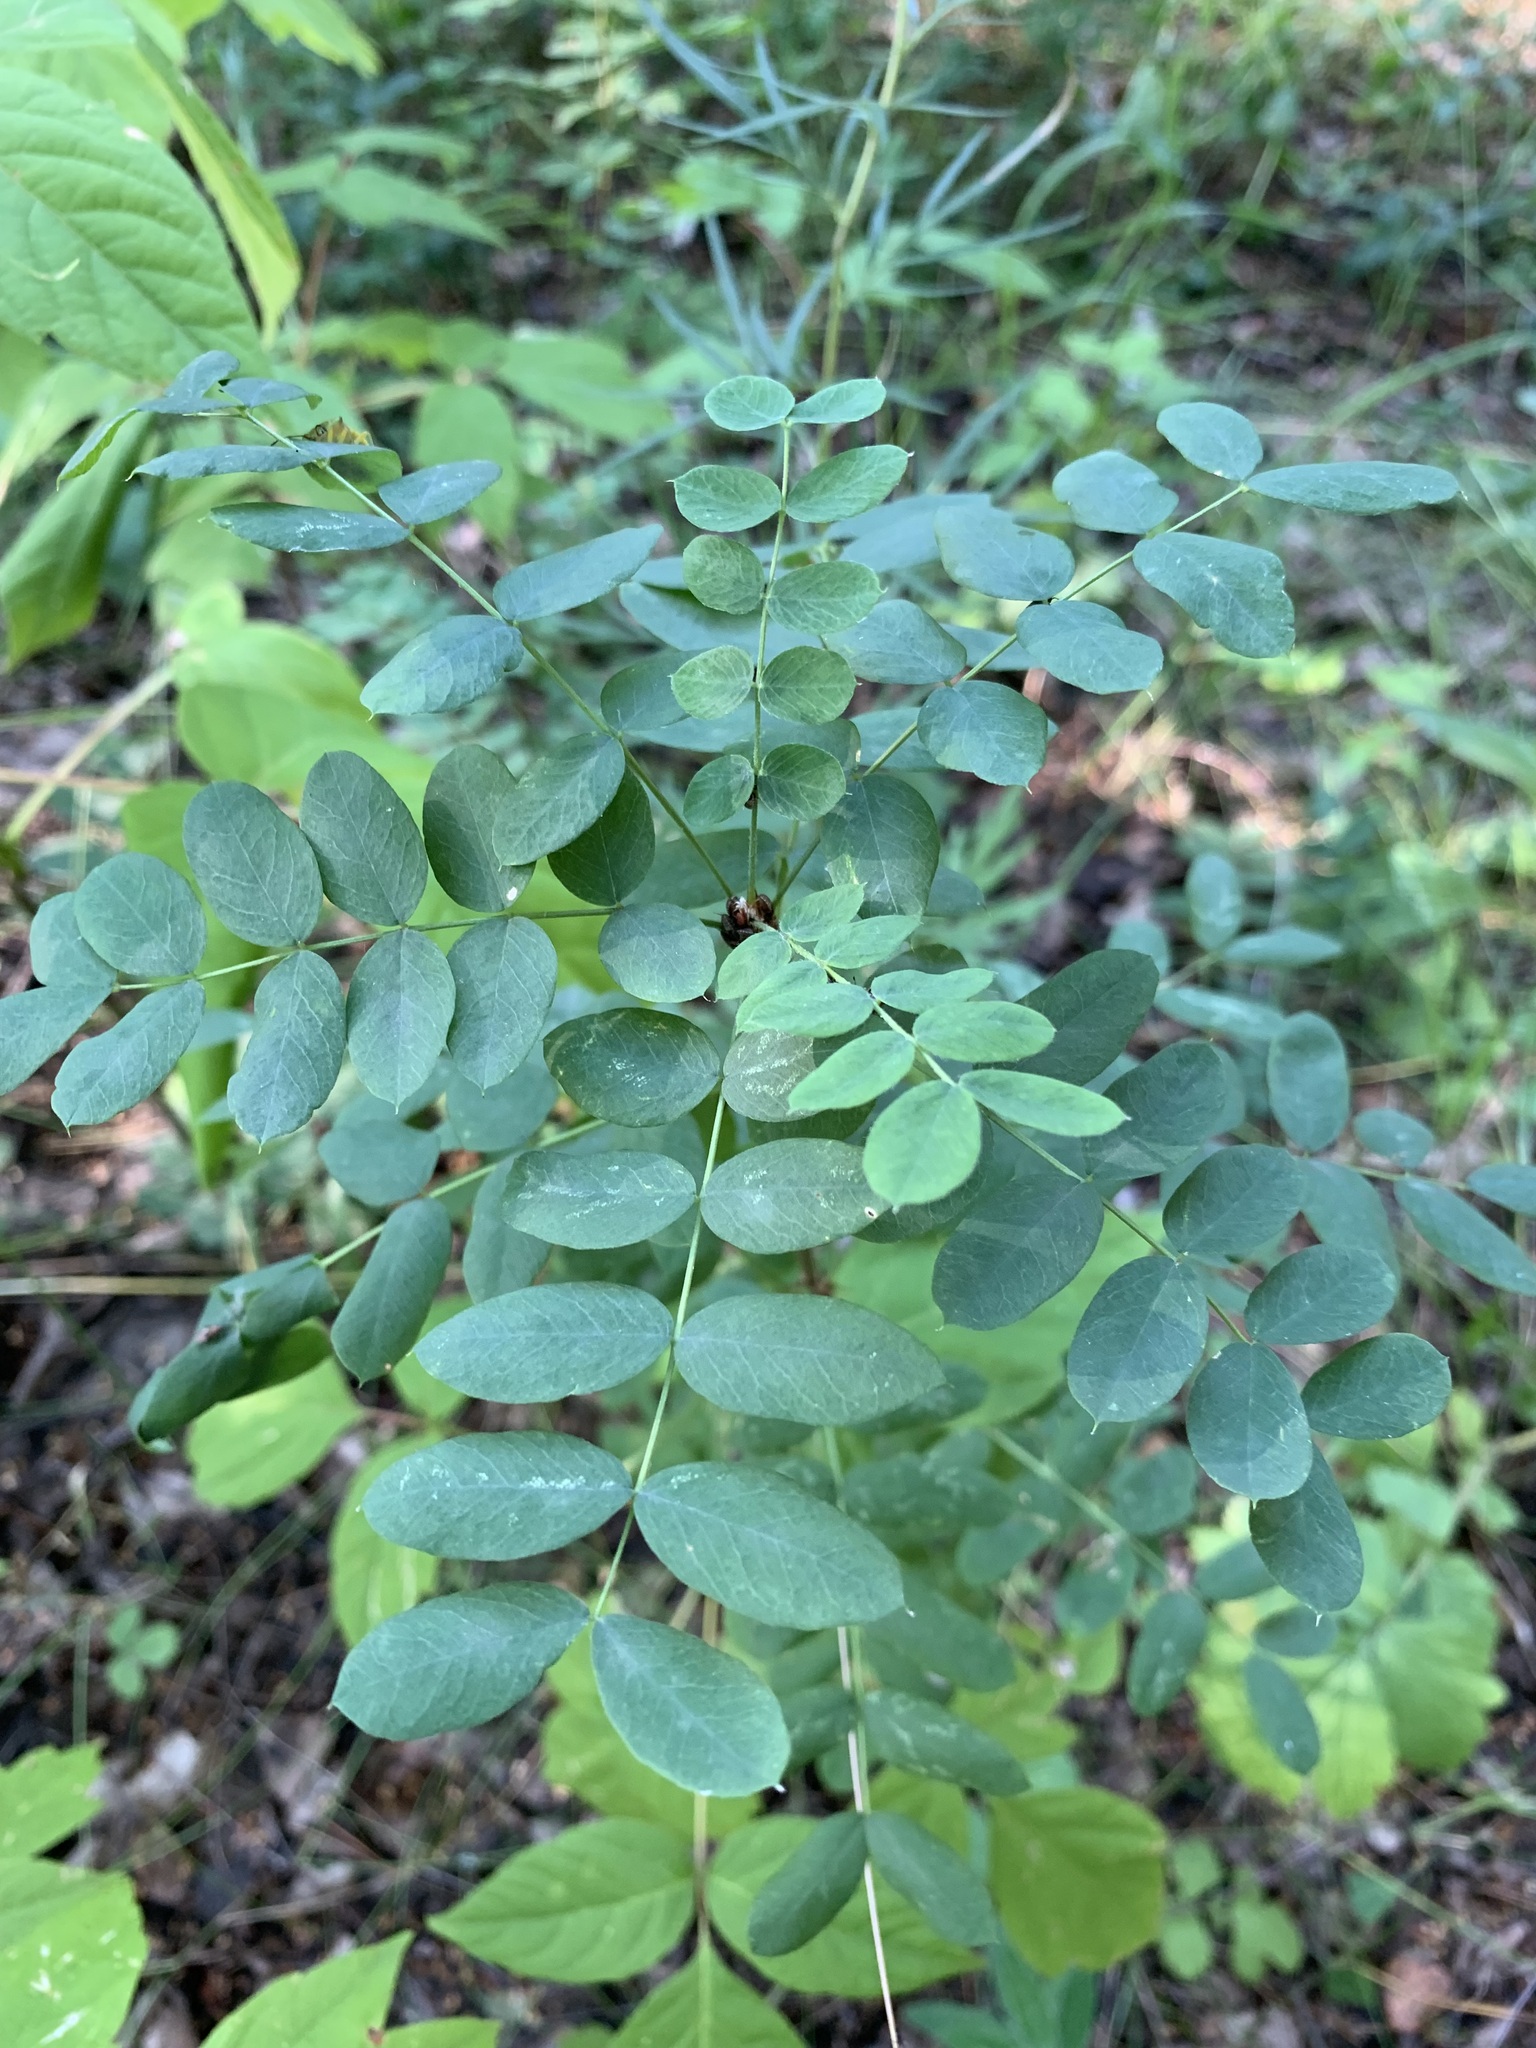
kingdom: Plantae
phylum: Tracheophyta
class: Magnoliopsida
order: Fabales
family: Fabaceae
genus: Caragana
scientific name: Caragana arborescens
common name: Siberian peashrub
